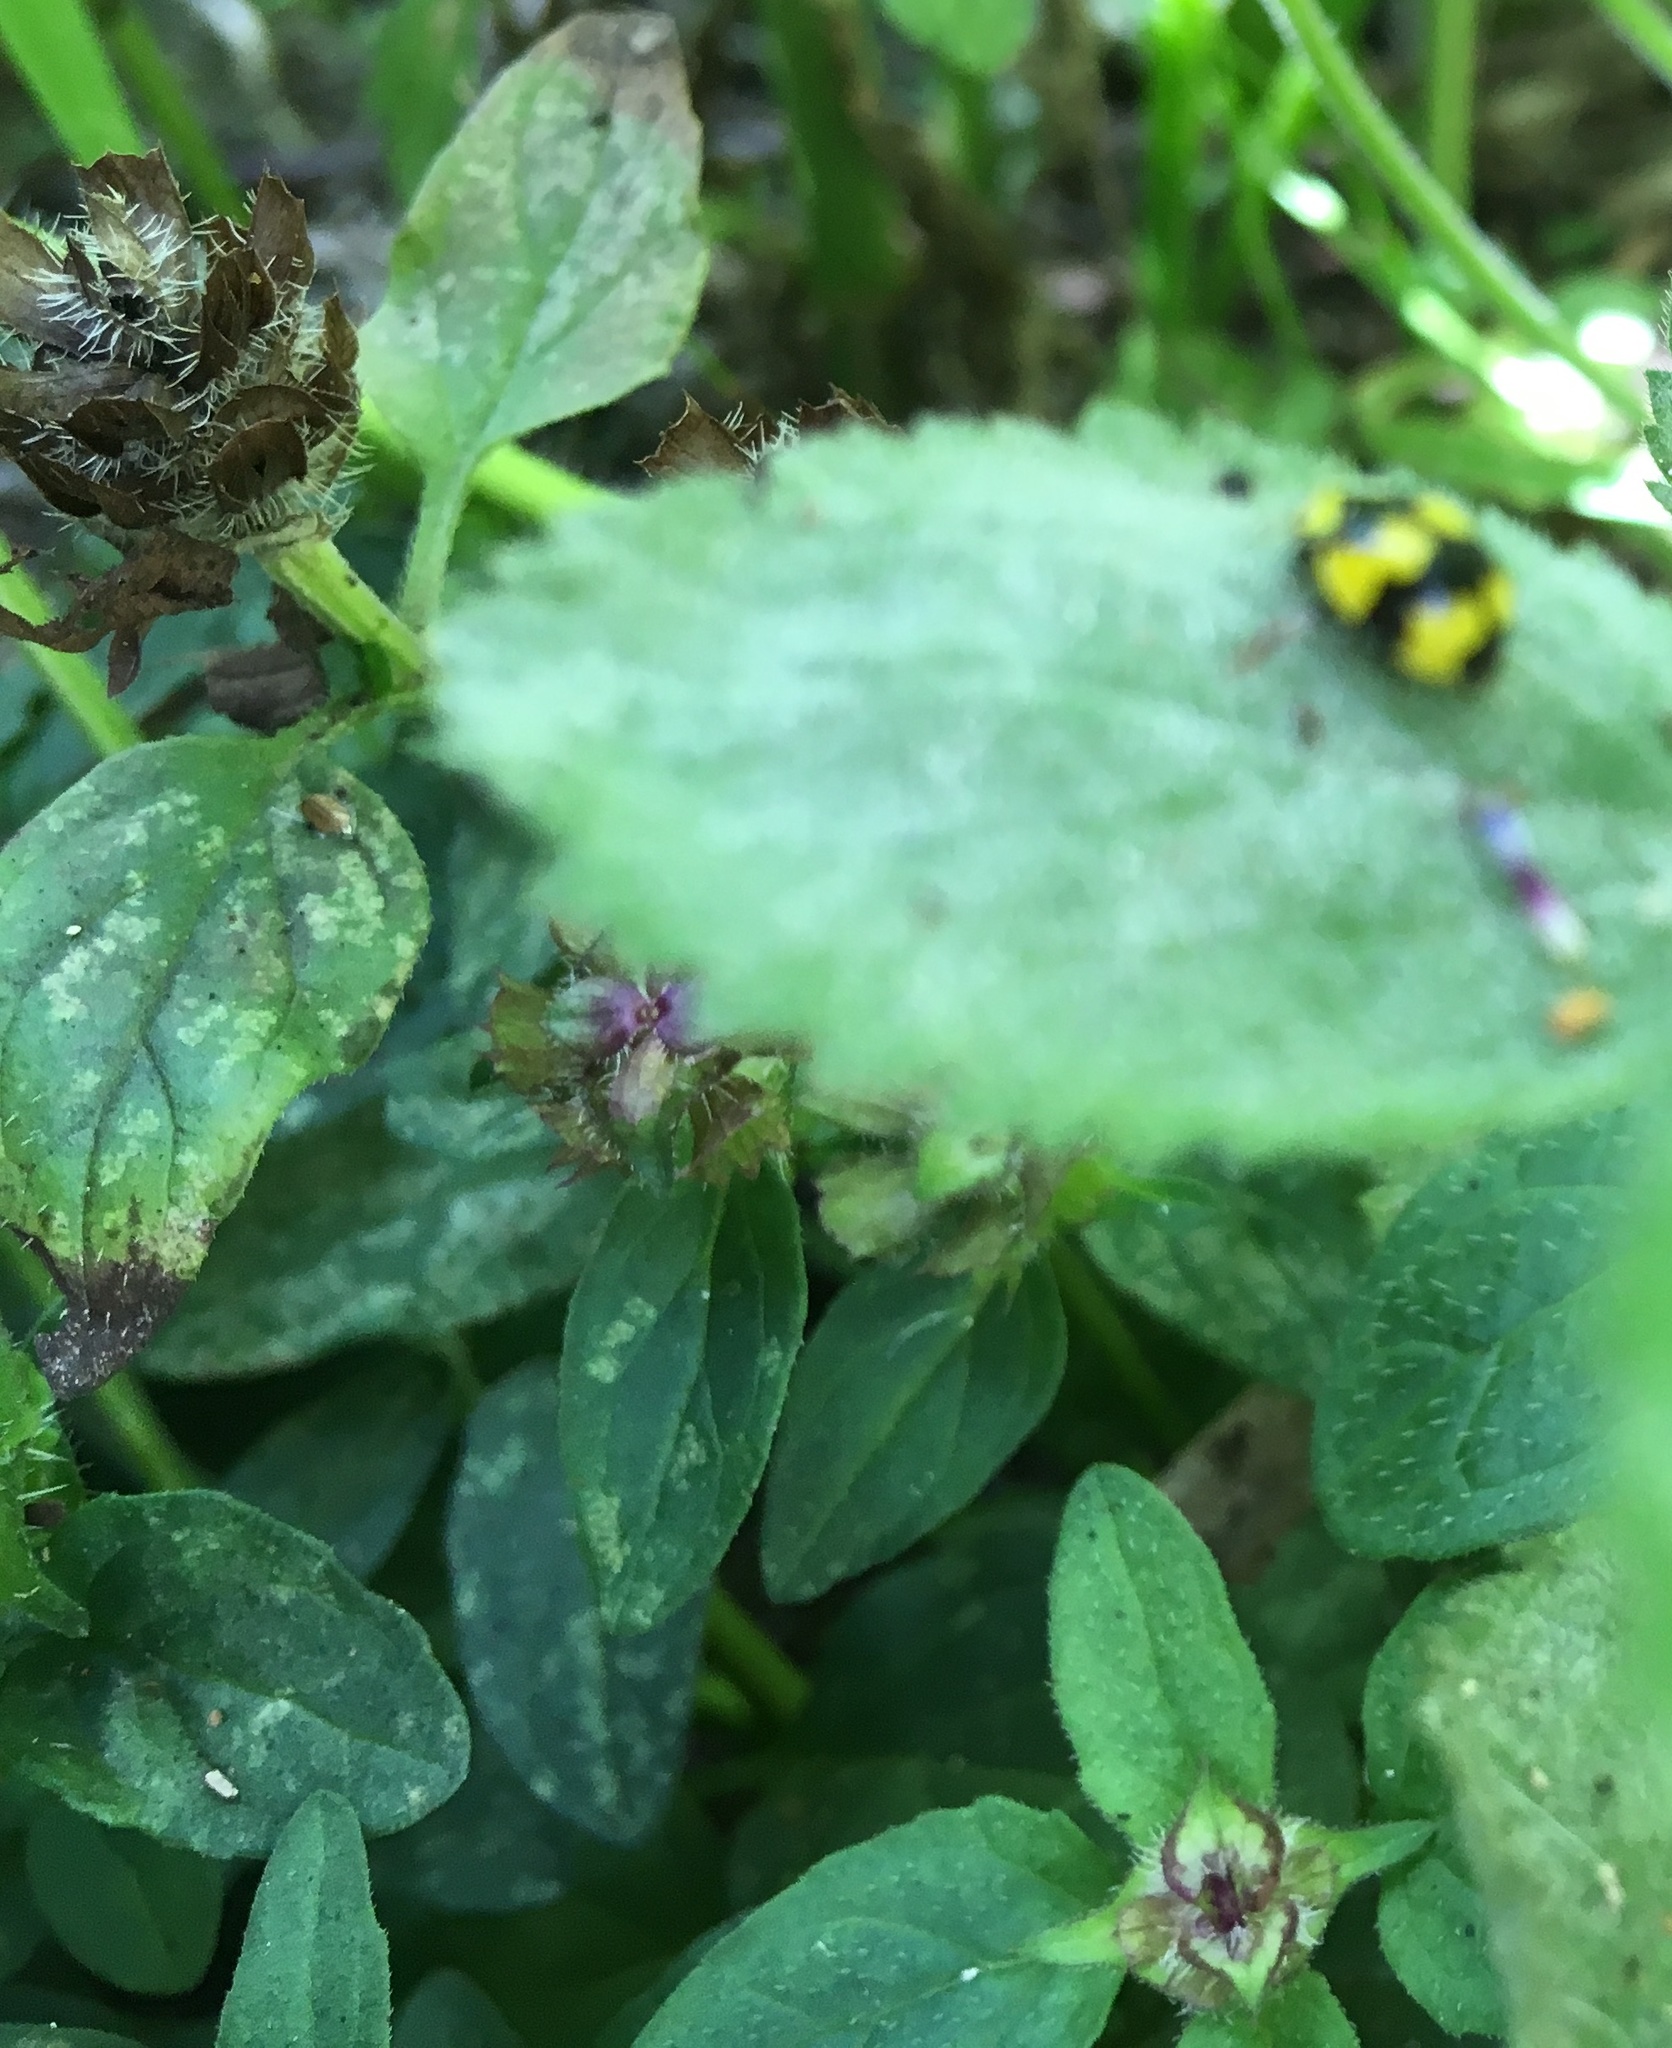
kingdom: Plantae
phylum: Tracheophyta
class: Magnoliopsida
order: Lamiales
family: Lamiaceae
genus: Prunella
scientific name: Prunella vulgaris
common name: Heal-all
